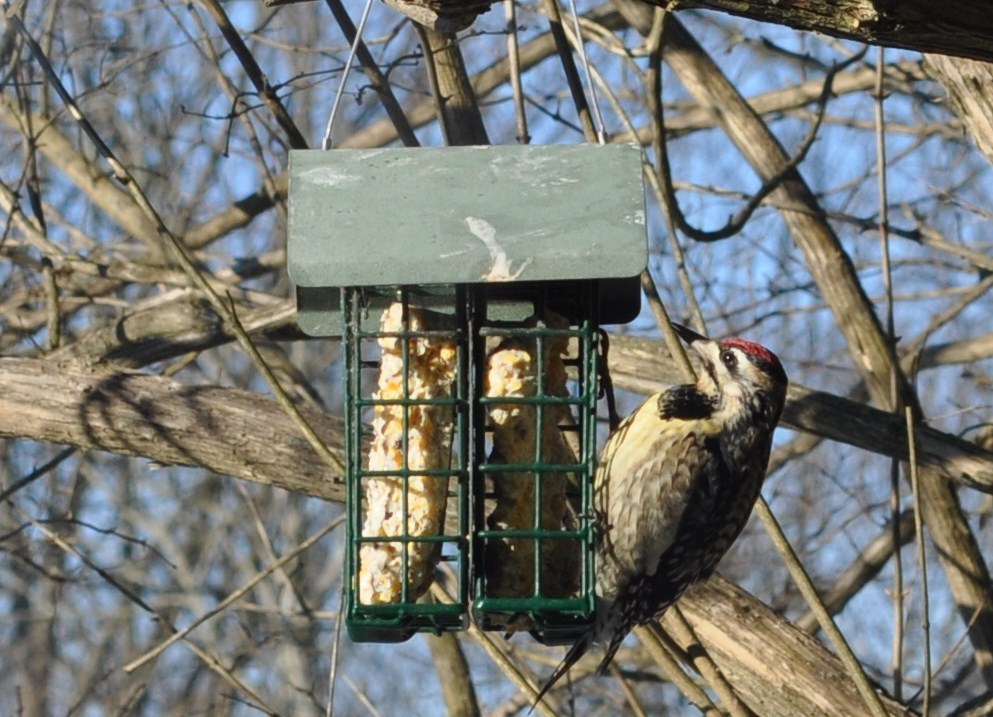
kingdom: Animalia
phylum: Chordata
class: Aves
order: Piciformes
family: Picidae
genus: Sphyrapicus
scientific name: Sphyrapicus varius
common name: Yellow-bellied sapsucker
